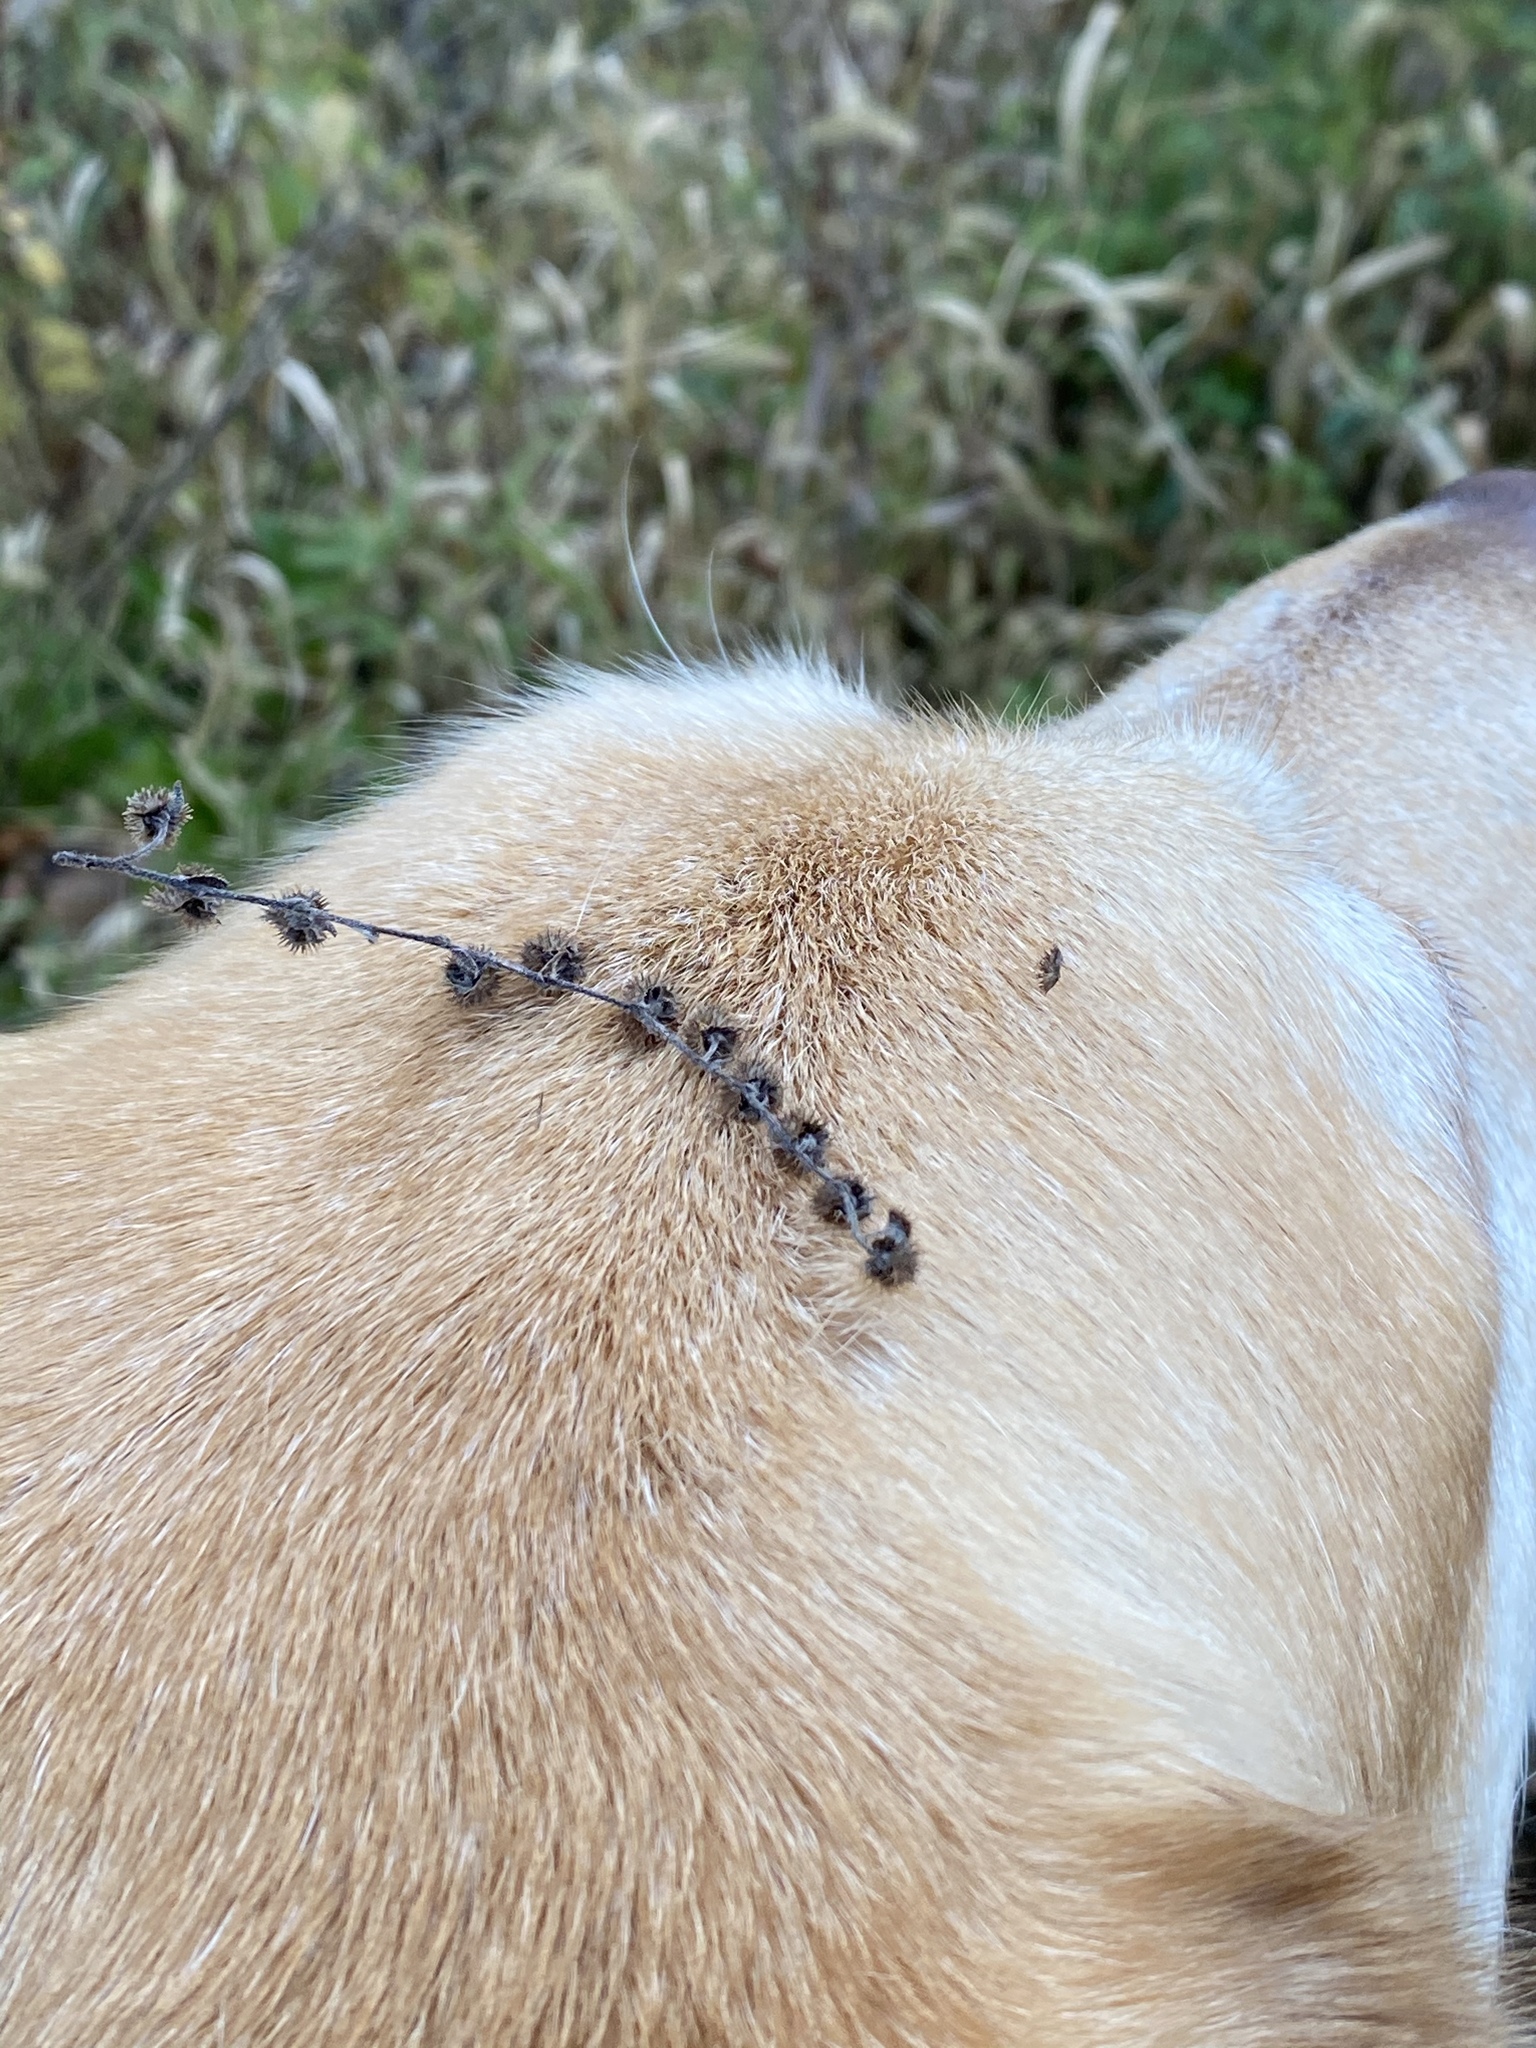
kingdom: Plantae
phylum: Tracheophyta
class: Magnoliopsida
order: Boraginales
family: Boraginaceae
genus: Hackelia
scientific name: Hackelia virginiana
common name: Beggar's-lice
